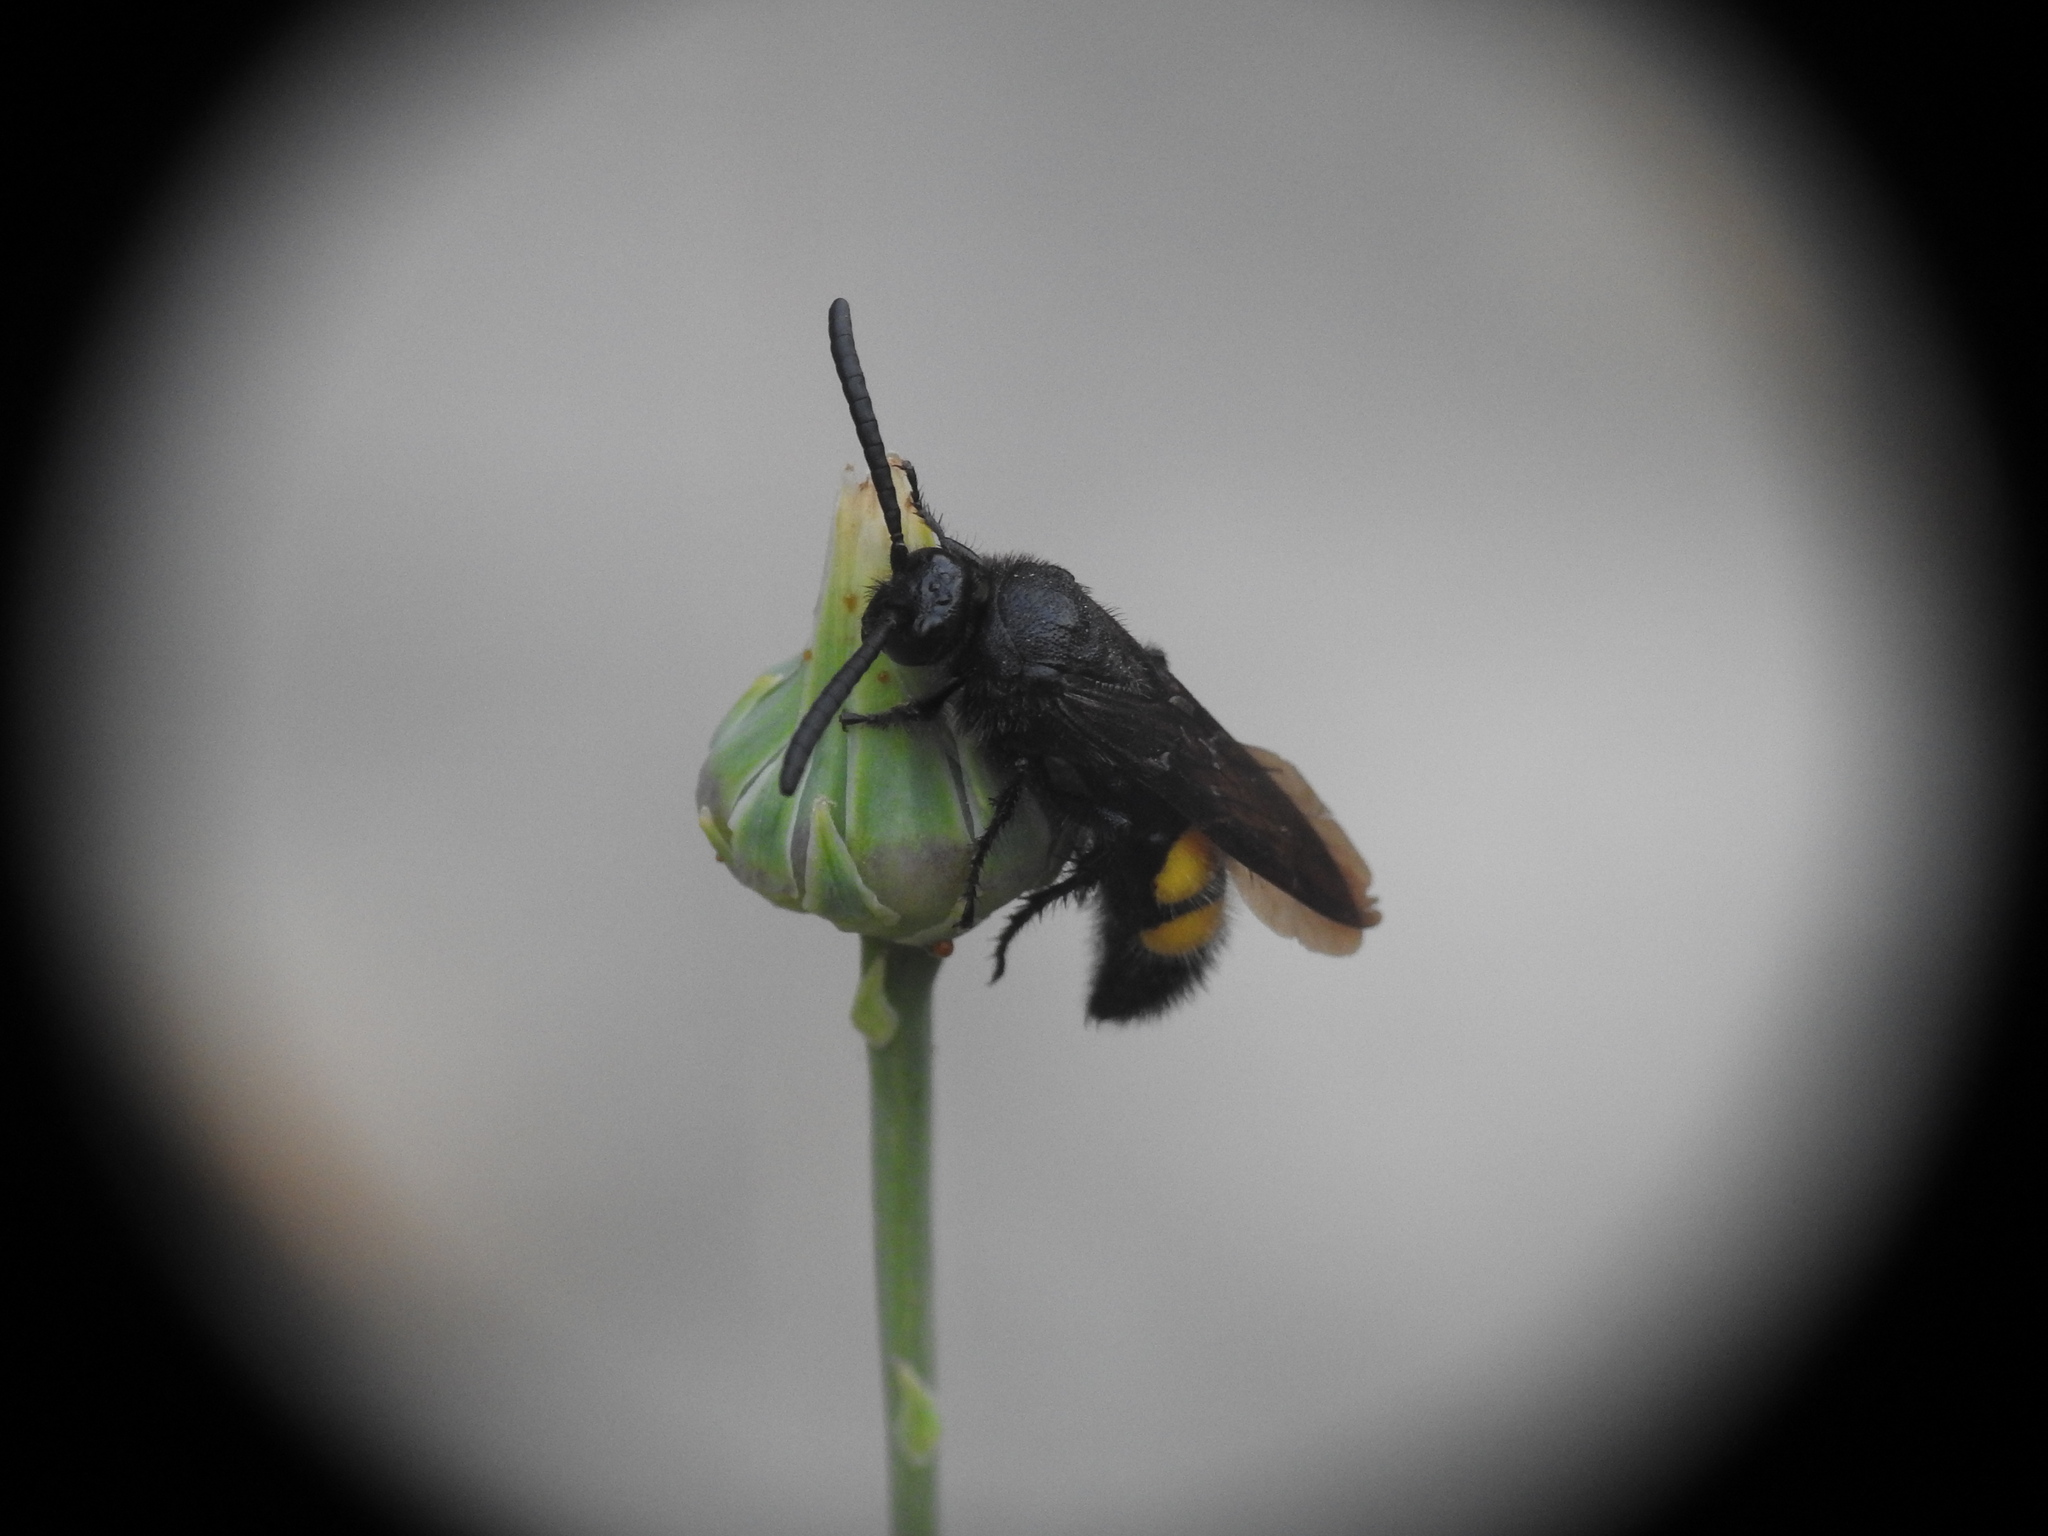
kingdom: Animalia
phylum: Arthropoda
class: Insecta
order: Hymenoptera
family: Scoliidae
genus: Scolia
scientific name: Scolia hirta
